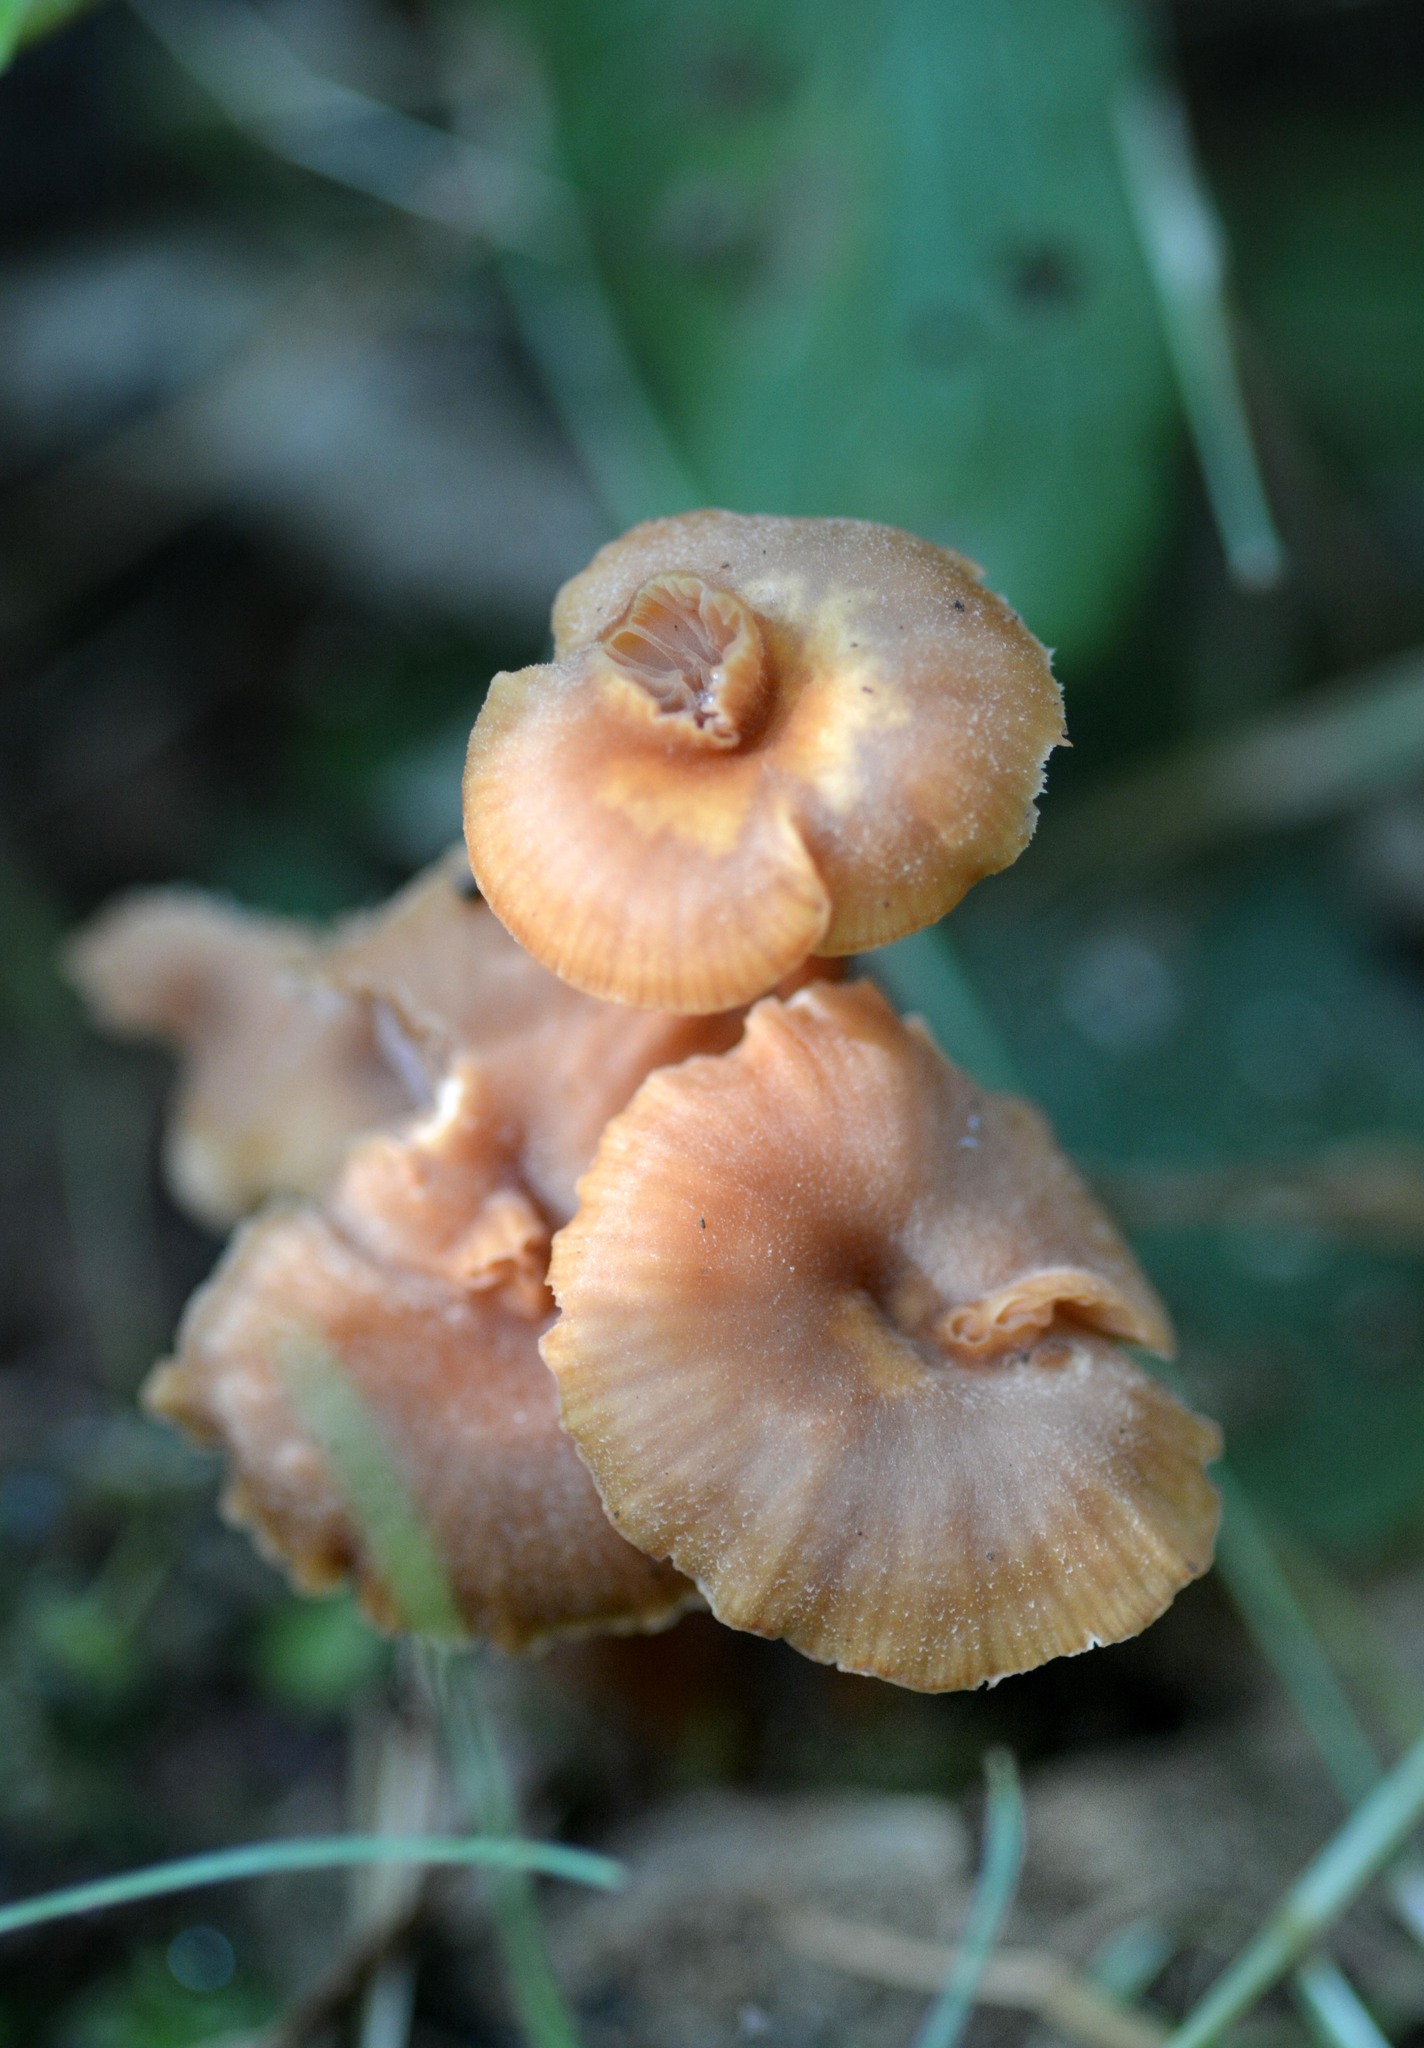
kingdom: Fungi
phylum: Basidiomycota
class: Agaricomycetes
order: Agaricales
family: Hydnangiaceae
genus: Laccaria
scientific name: Laccaria laccata
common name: Deceiver
